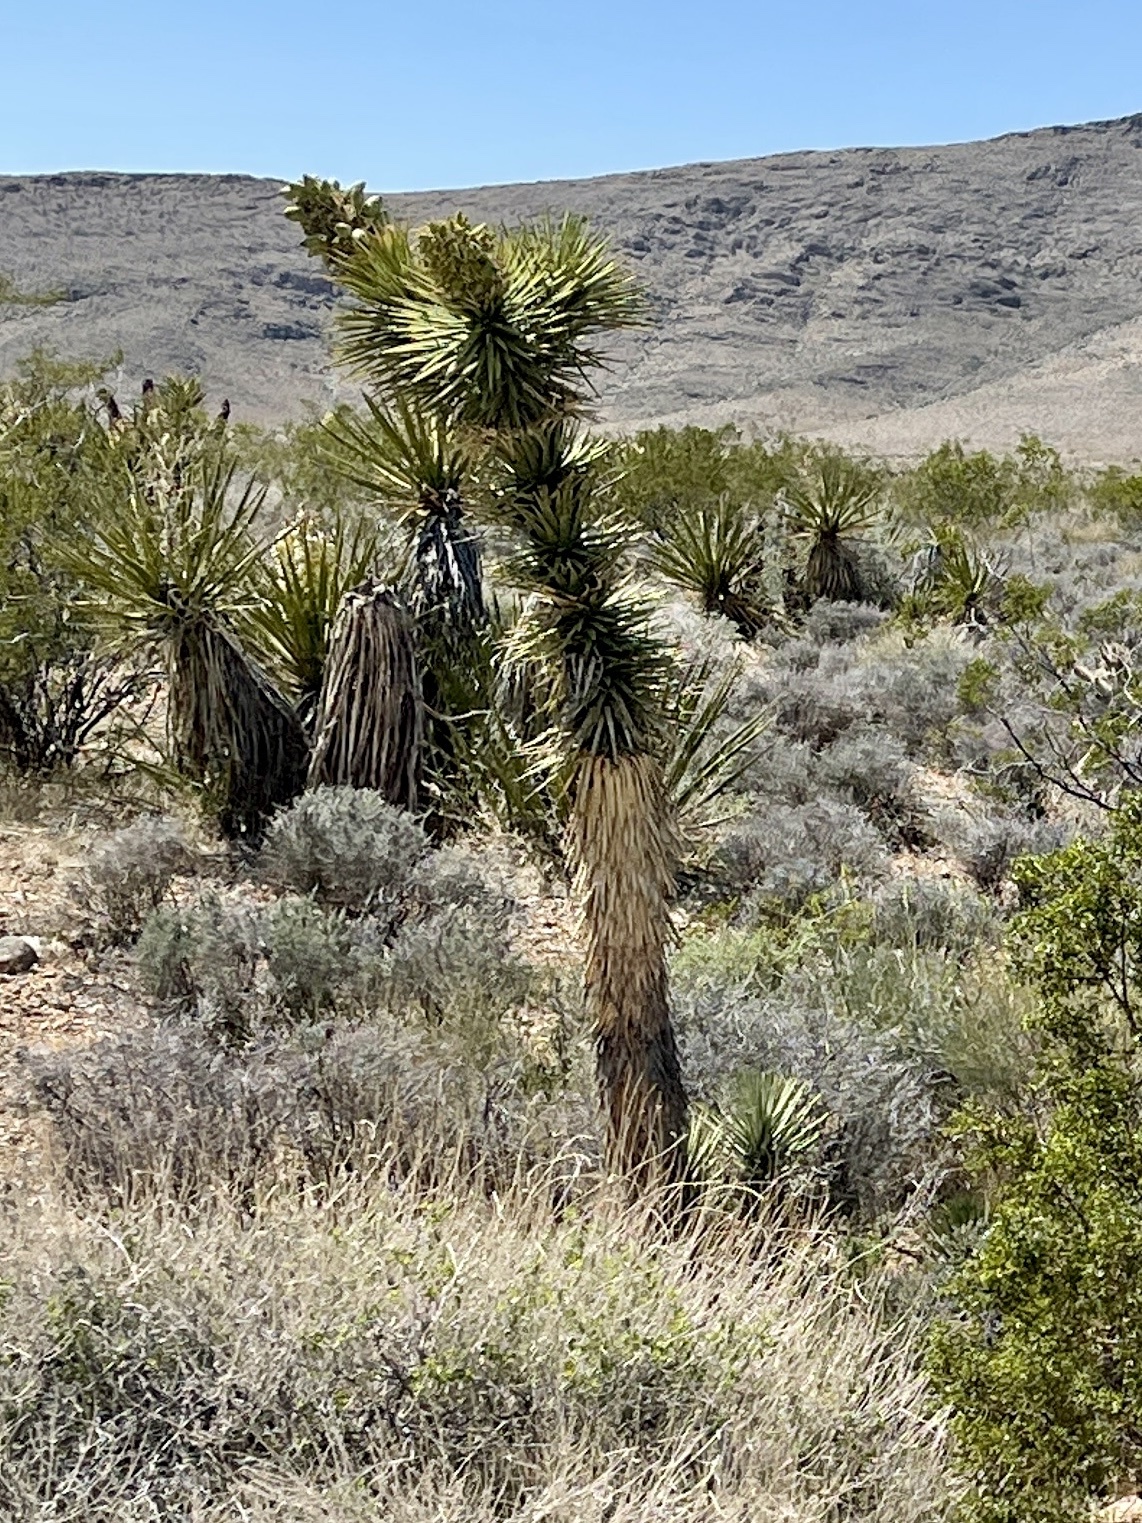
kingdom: Plantae
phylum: Tracheophyta
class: Liliopsida
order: Asparagales
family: Asparagaceae
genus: Yucca
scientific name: Yucca brevifolia
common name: Joshua tree
